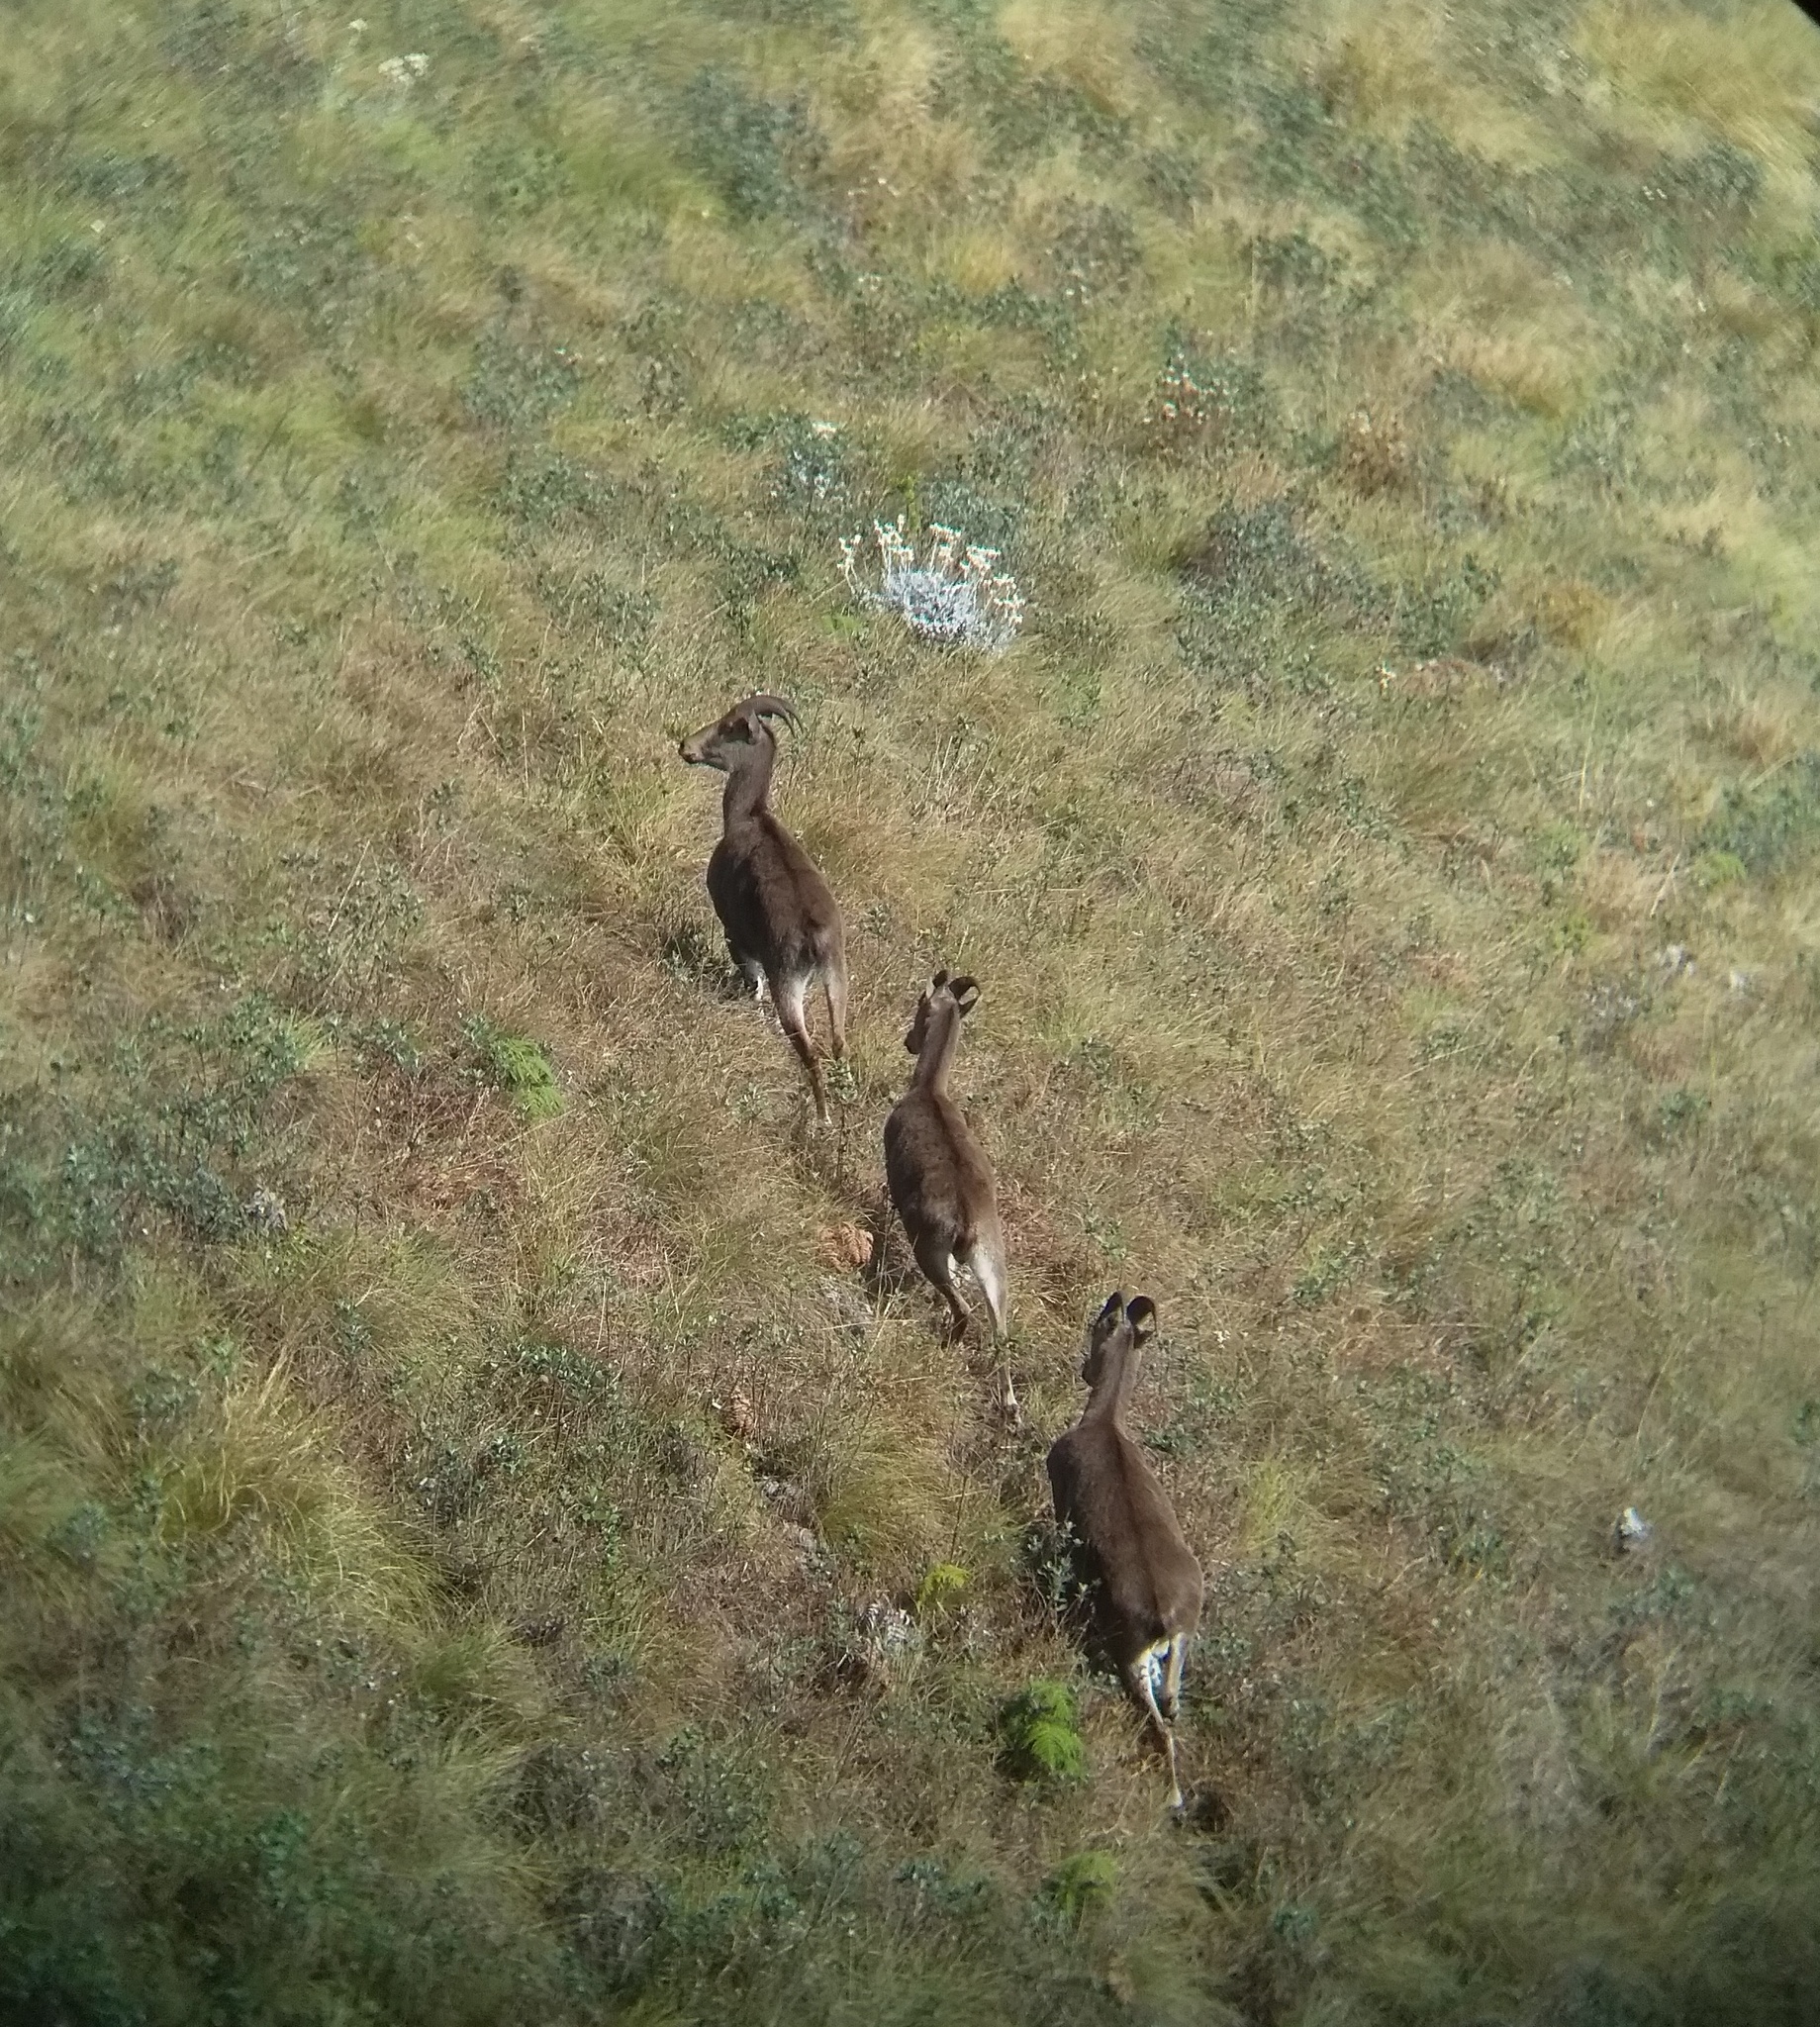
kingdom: Animalia
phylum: Chordata
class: Mammalia
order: Artiodactyla
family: Bovidae
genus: Hemitragus
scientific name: Hemitragus hylocrius
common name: Nilgiri tahr
